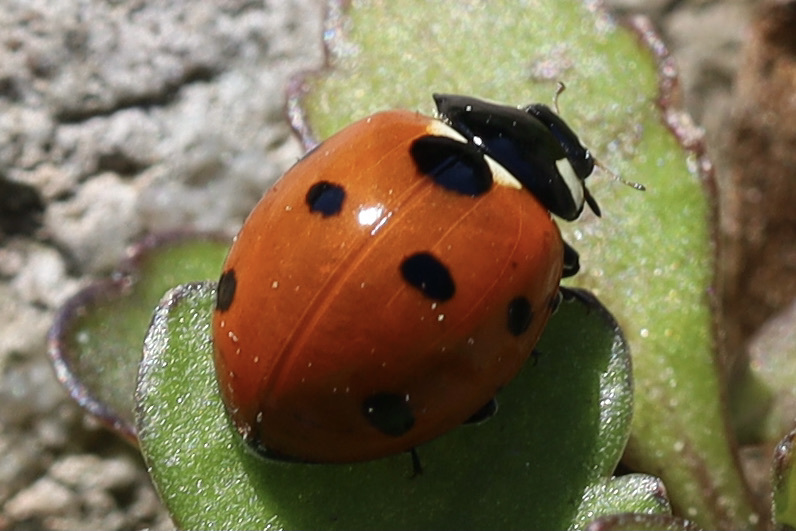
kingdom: Animalia
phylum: Arthropoda
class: Insecta
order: Coleoptera
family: Coccinellidae
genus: Coccinella
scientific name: Coccinella septempunctata
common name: Sevenspotted lady beetle
